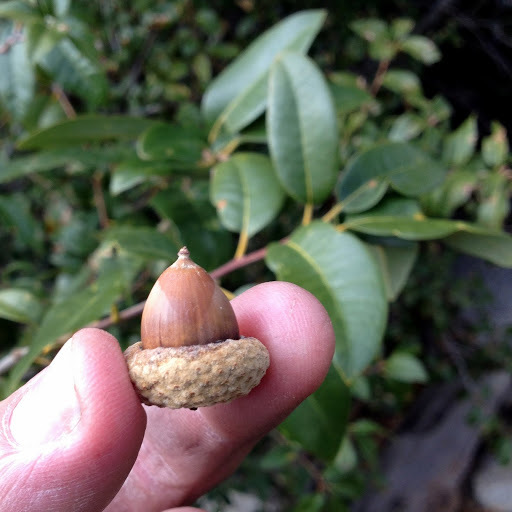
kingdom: Plantae
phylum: Tracheophyta
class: Magnoliopsida
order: Fagales
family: Fagaceae
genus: Quercus
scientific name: Quercus chrysolepis
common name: Canyon live oak
